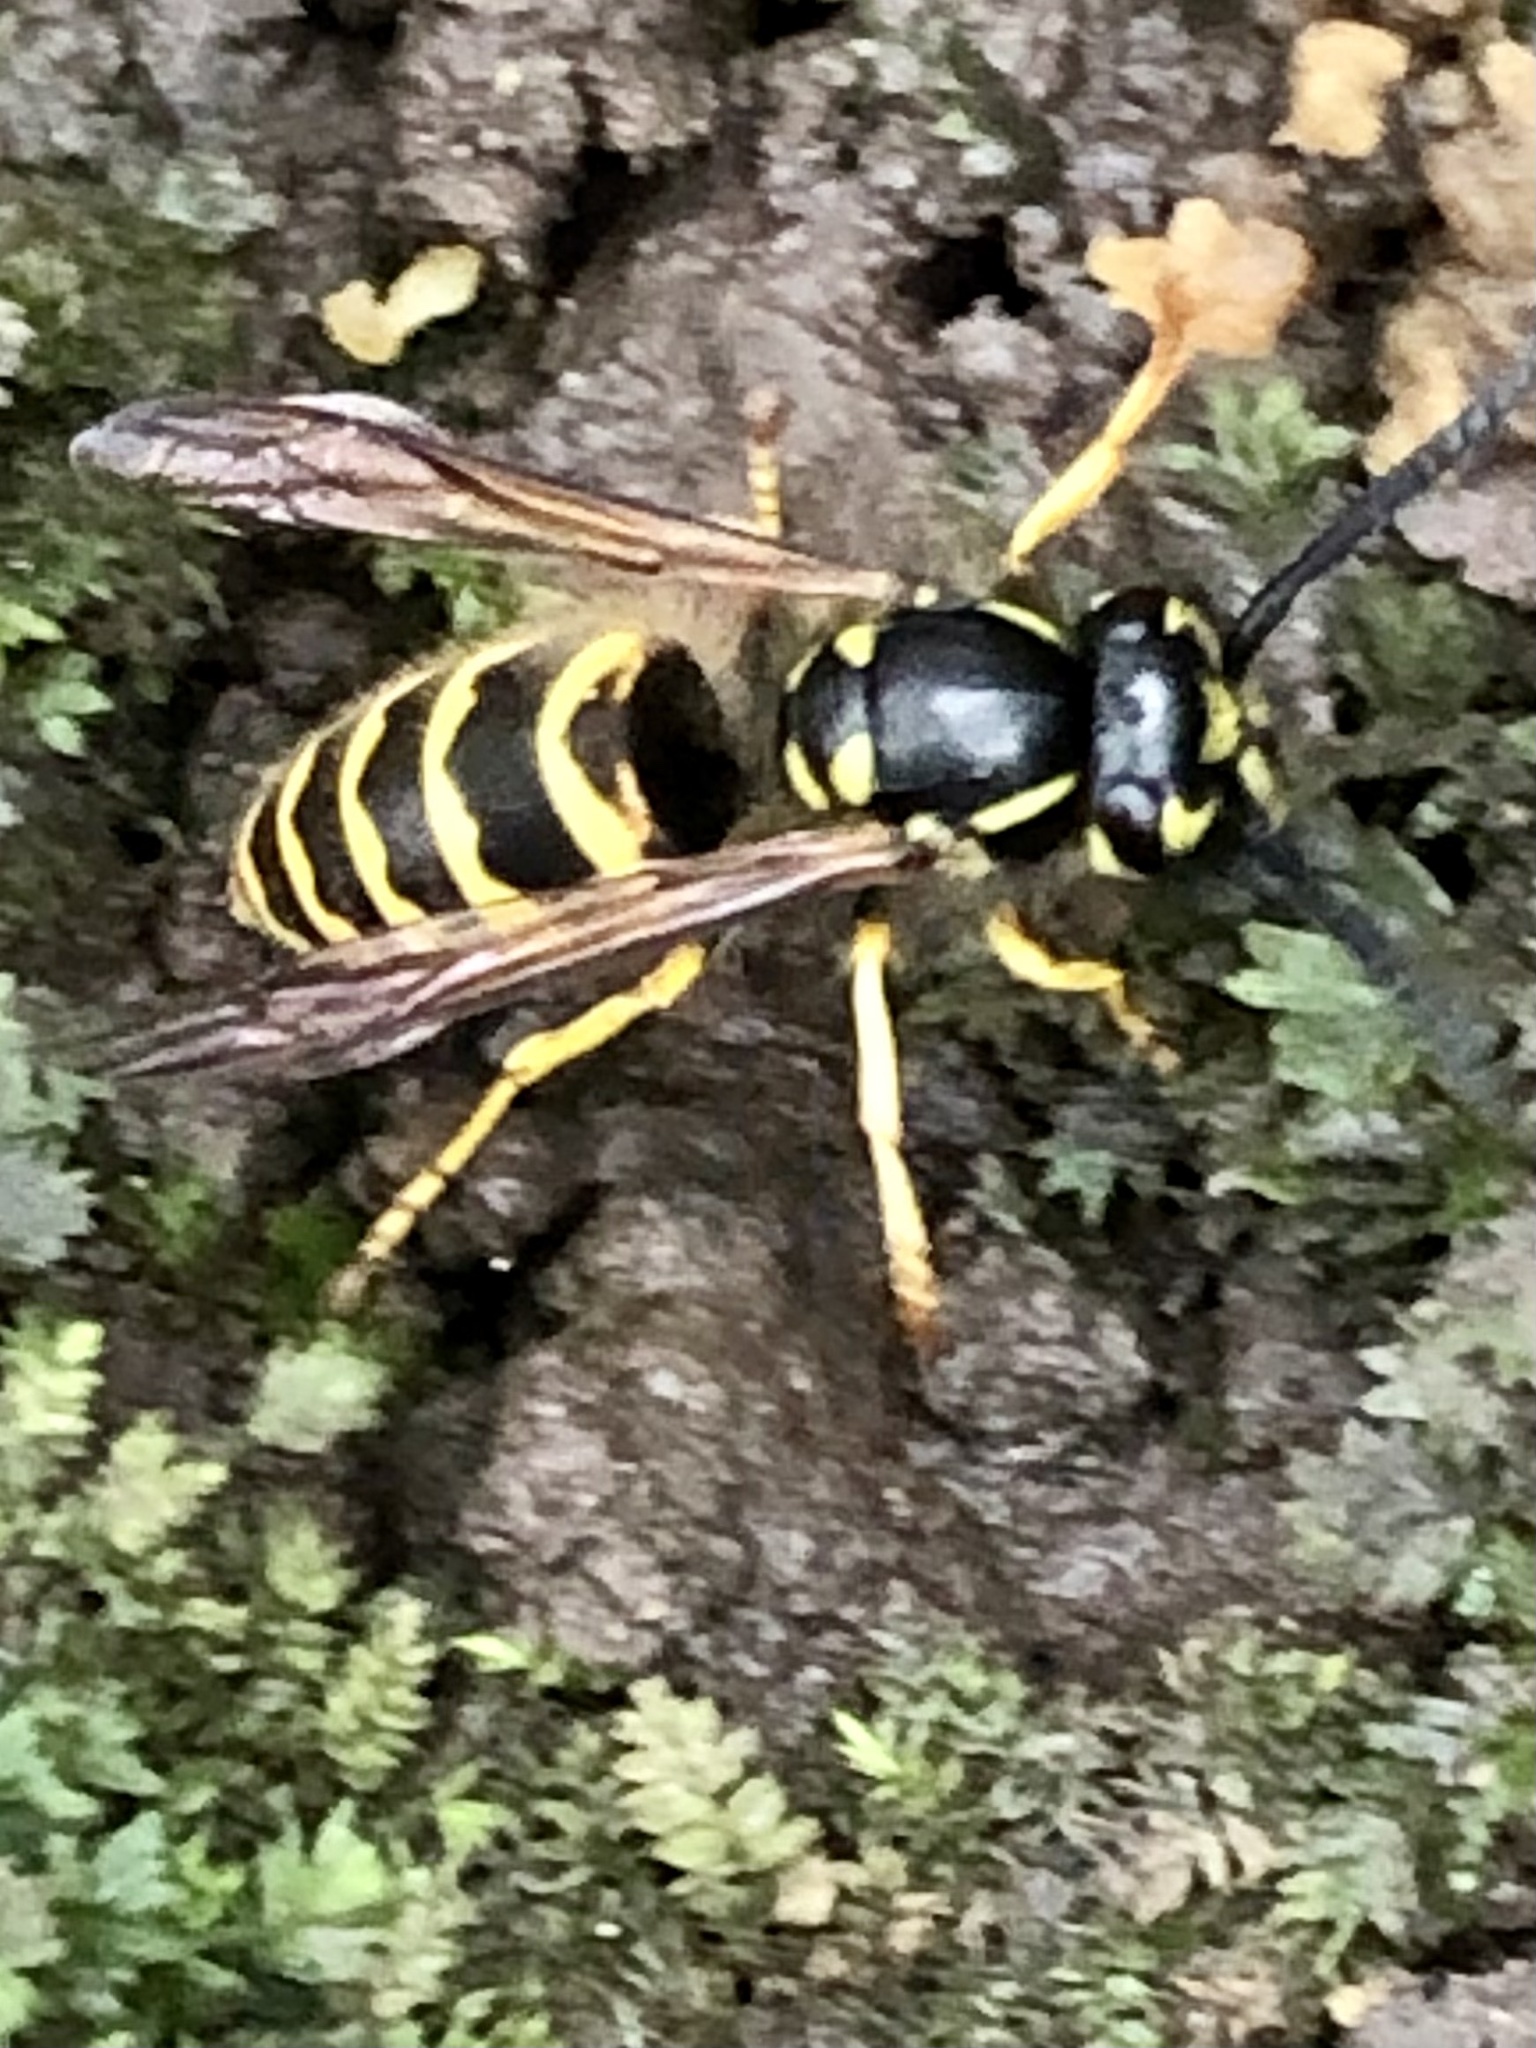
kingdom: Animalia
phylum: Arthropoda
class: Insecta
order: Hymenoptera
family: Vespidae
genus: Vespula
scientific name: Vespula alascensis
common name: Alaska yellowjacket
